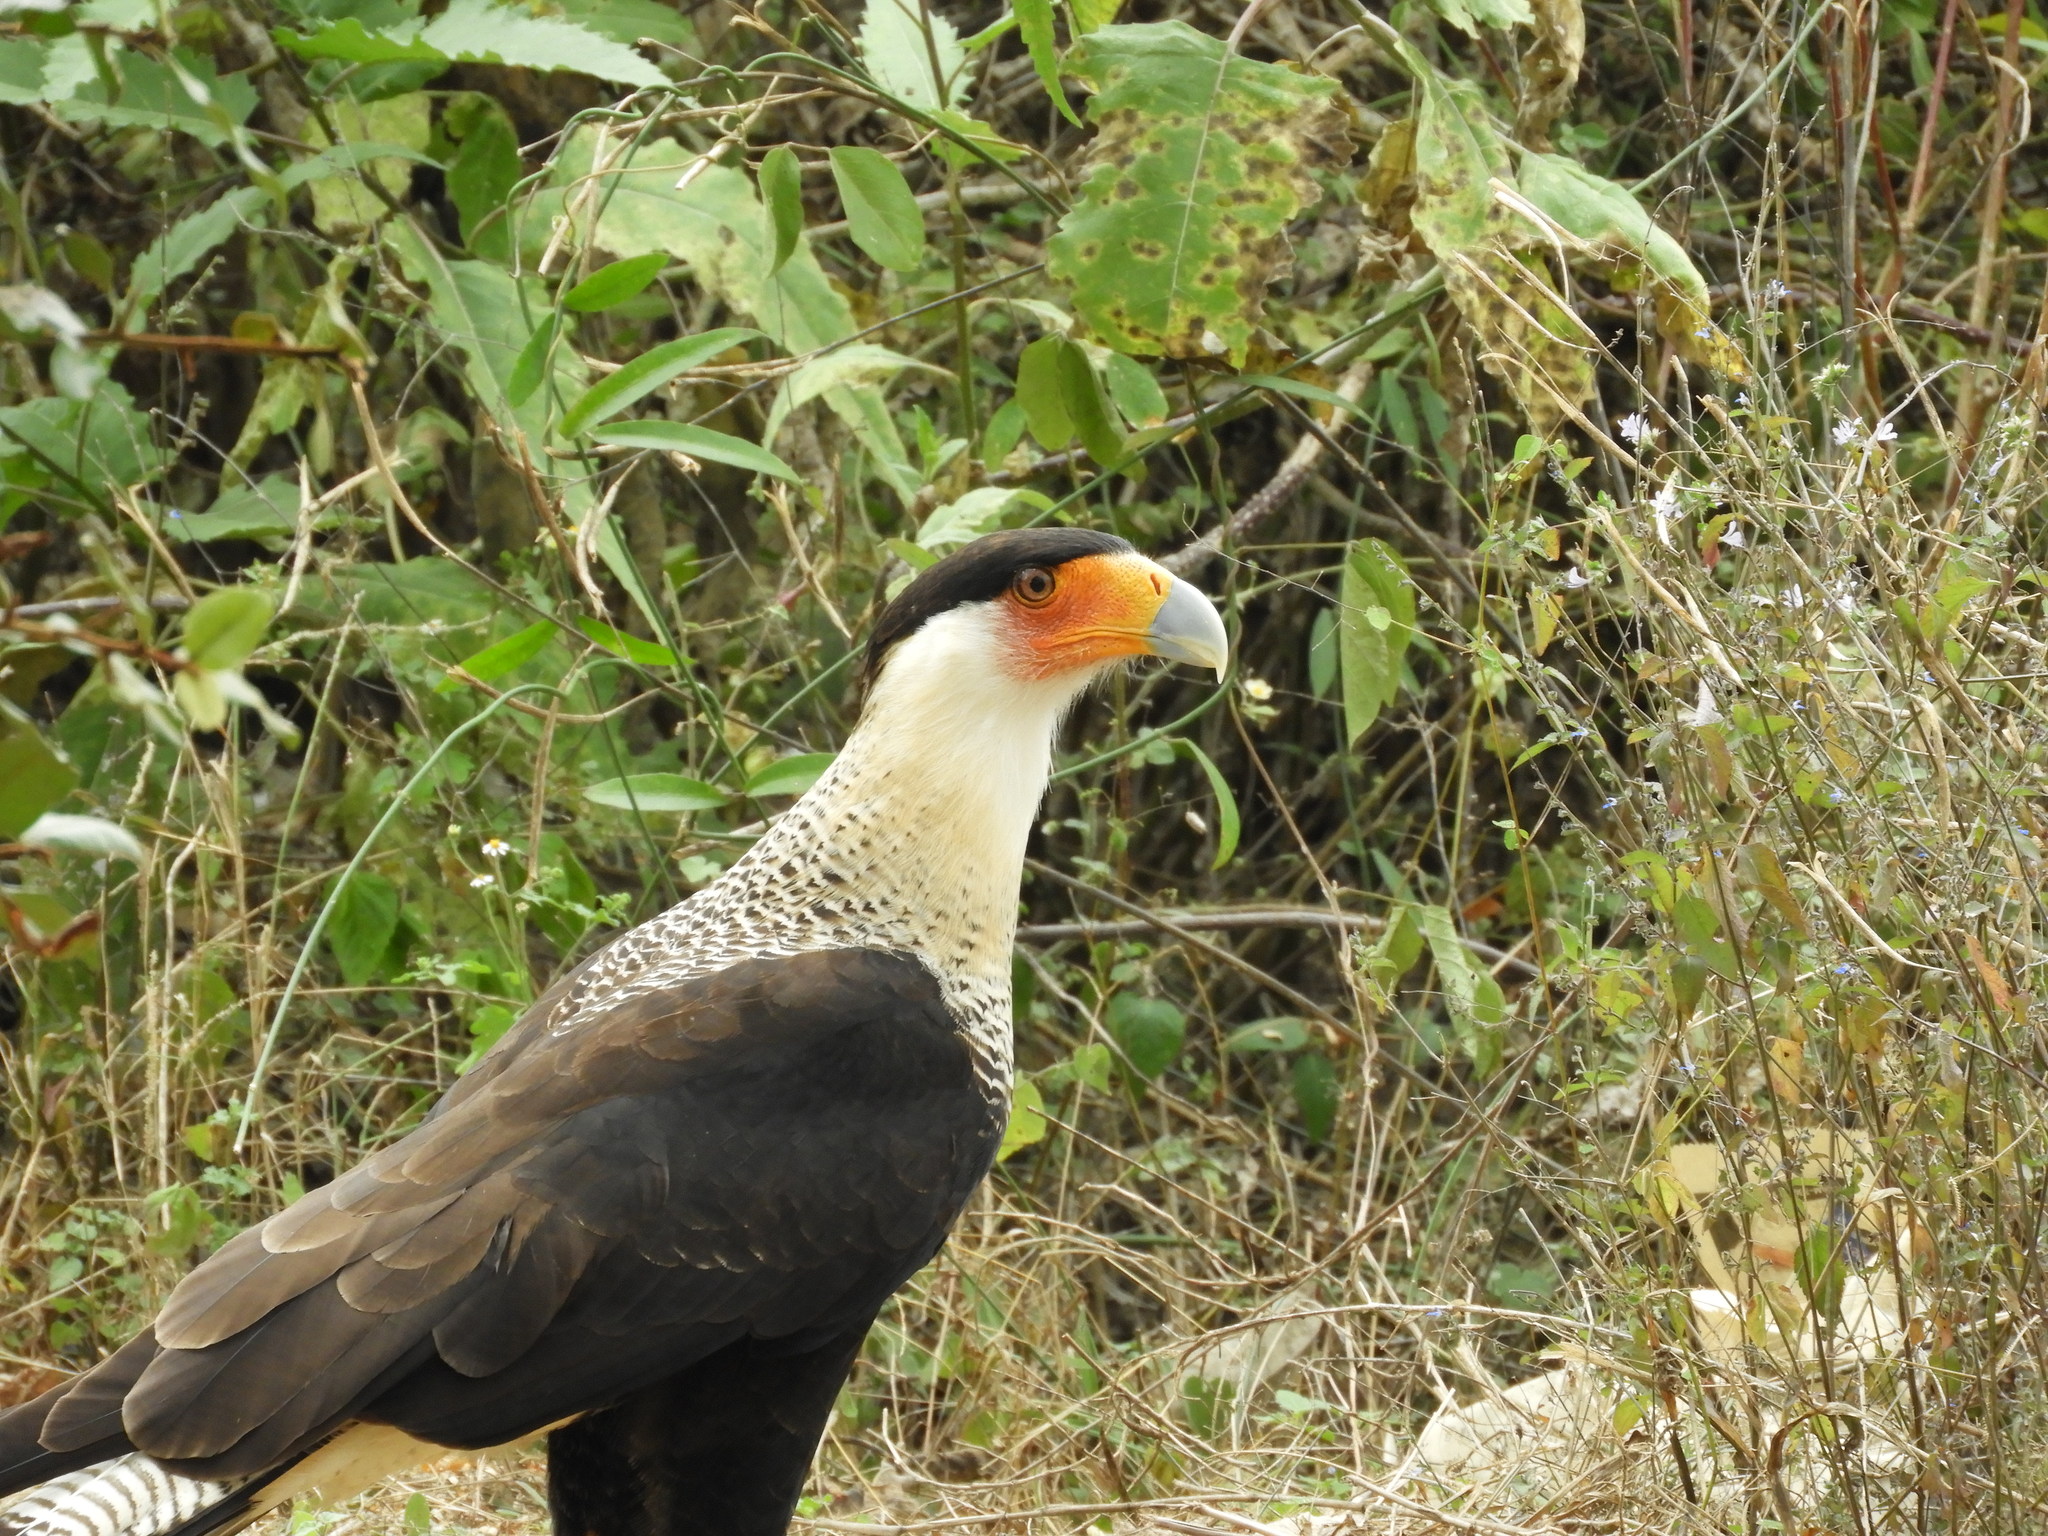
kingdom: Animalia
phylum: Chordata
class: Aves
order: Falconiformes
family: Falconidae
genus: Caracara
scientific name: Caracara plancus
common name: Southern caracara
